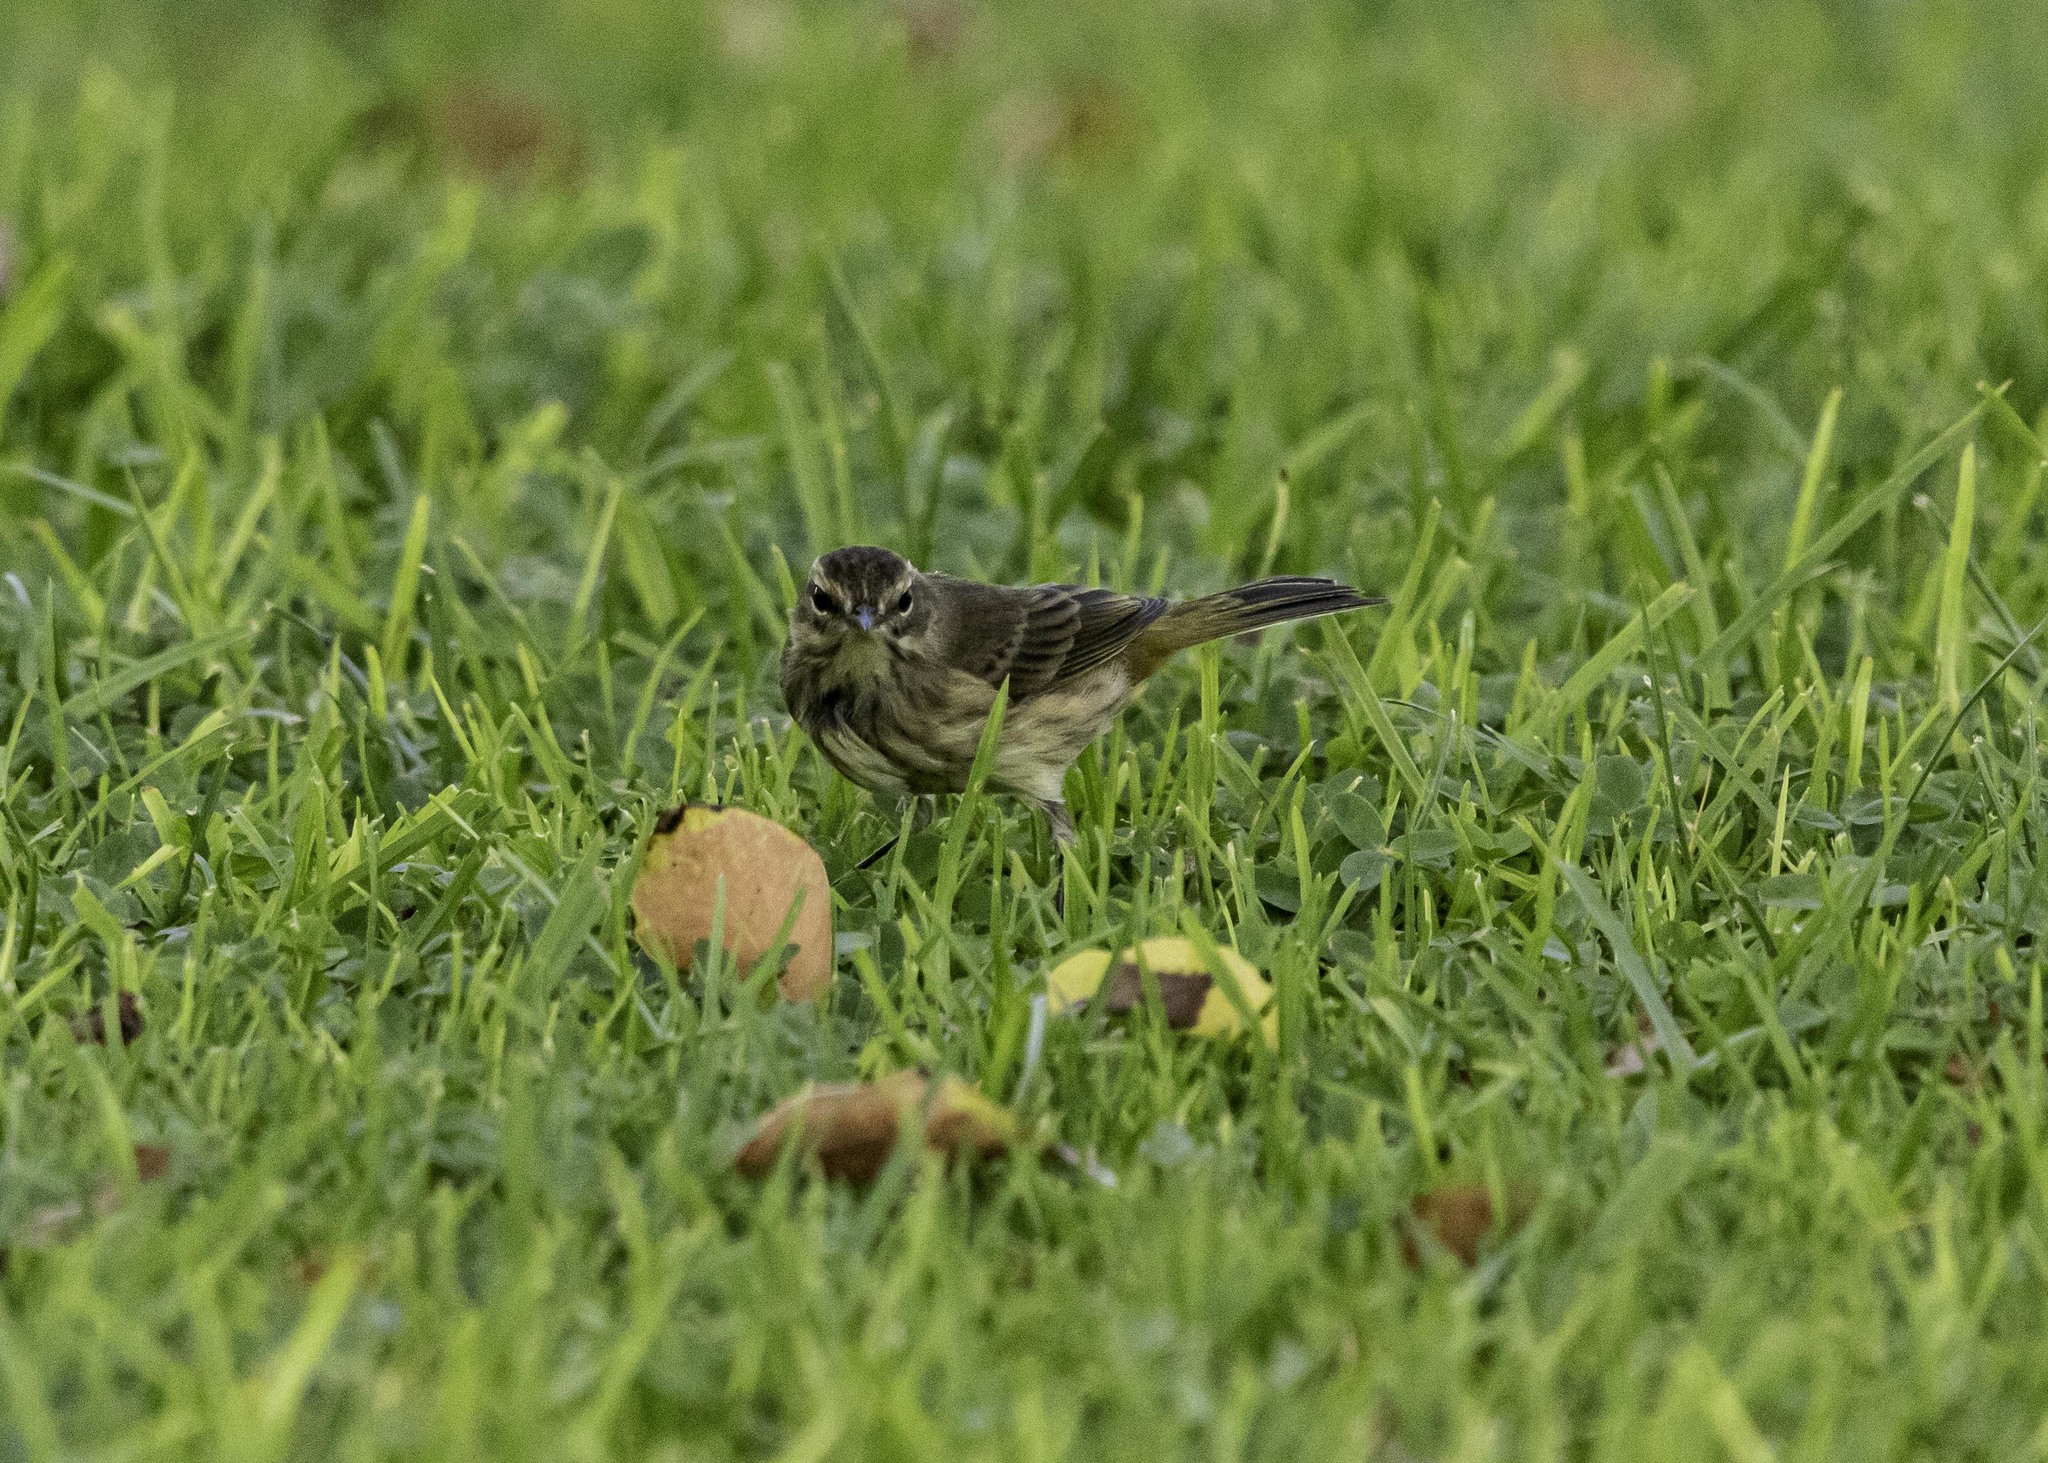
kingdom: Animalia
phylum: Chordata
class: Aves
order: Passeriformes
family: Parulidae
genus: Setophaga
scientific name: Setophaga palmarum
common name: Palm warbler
